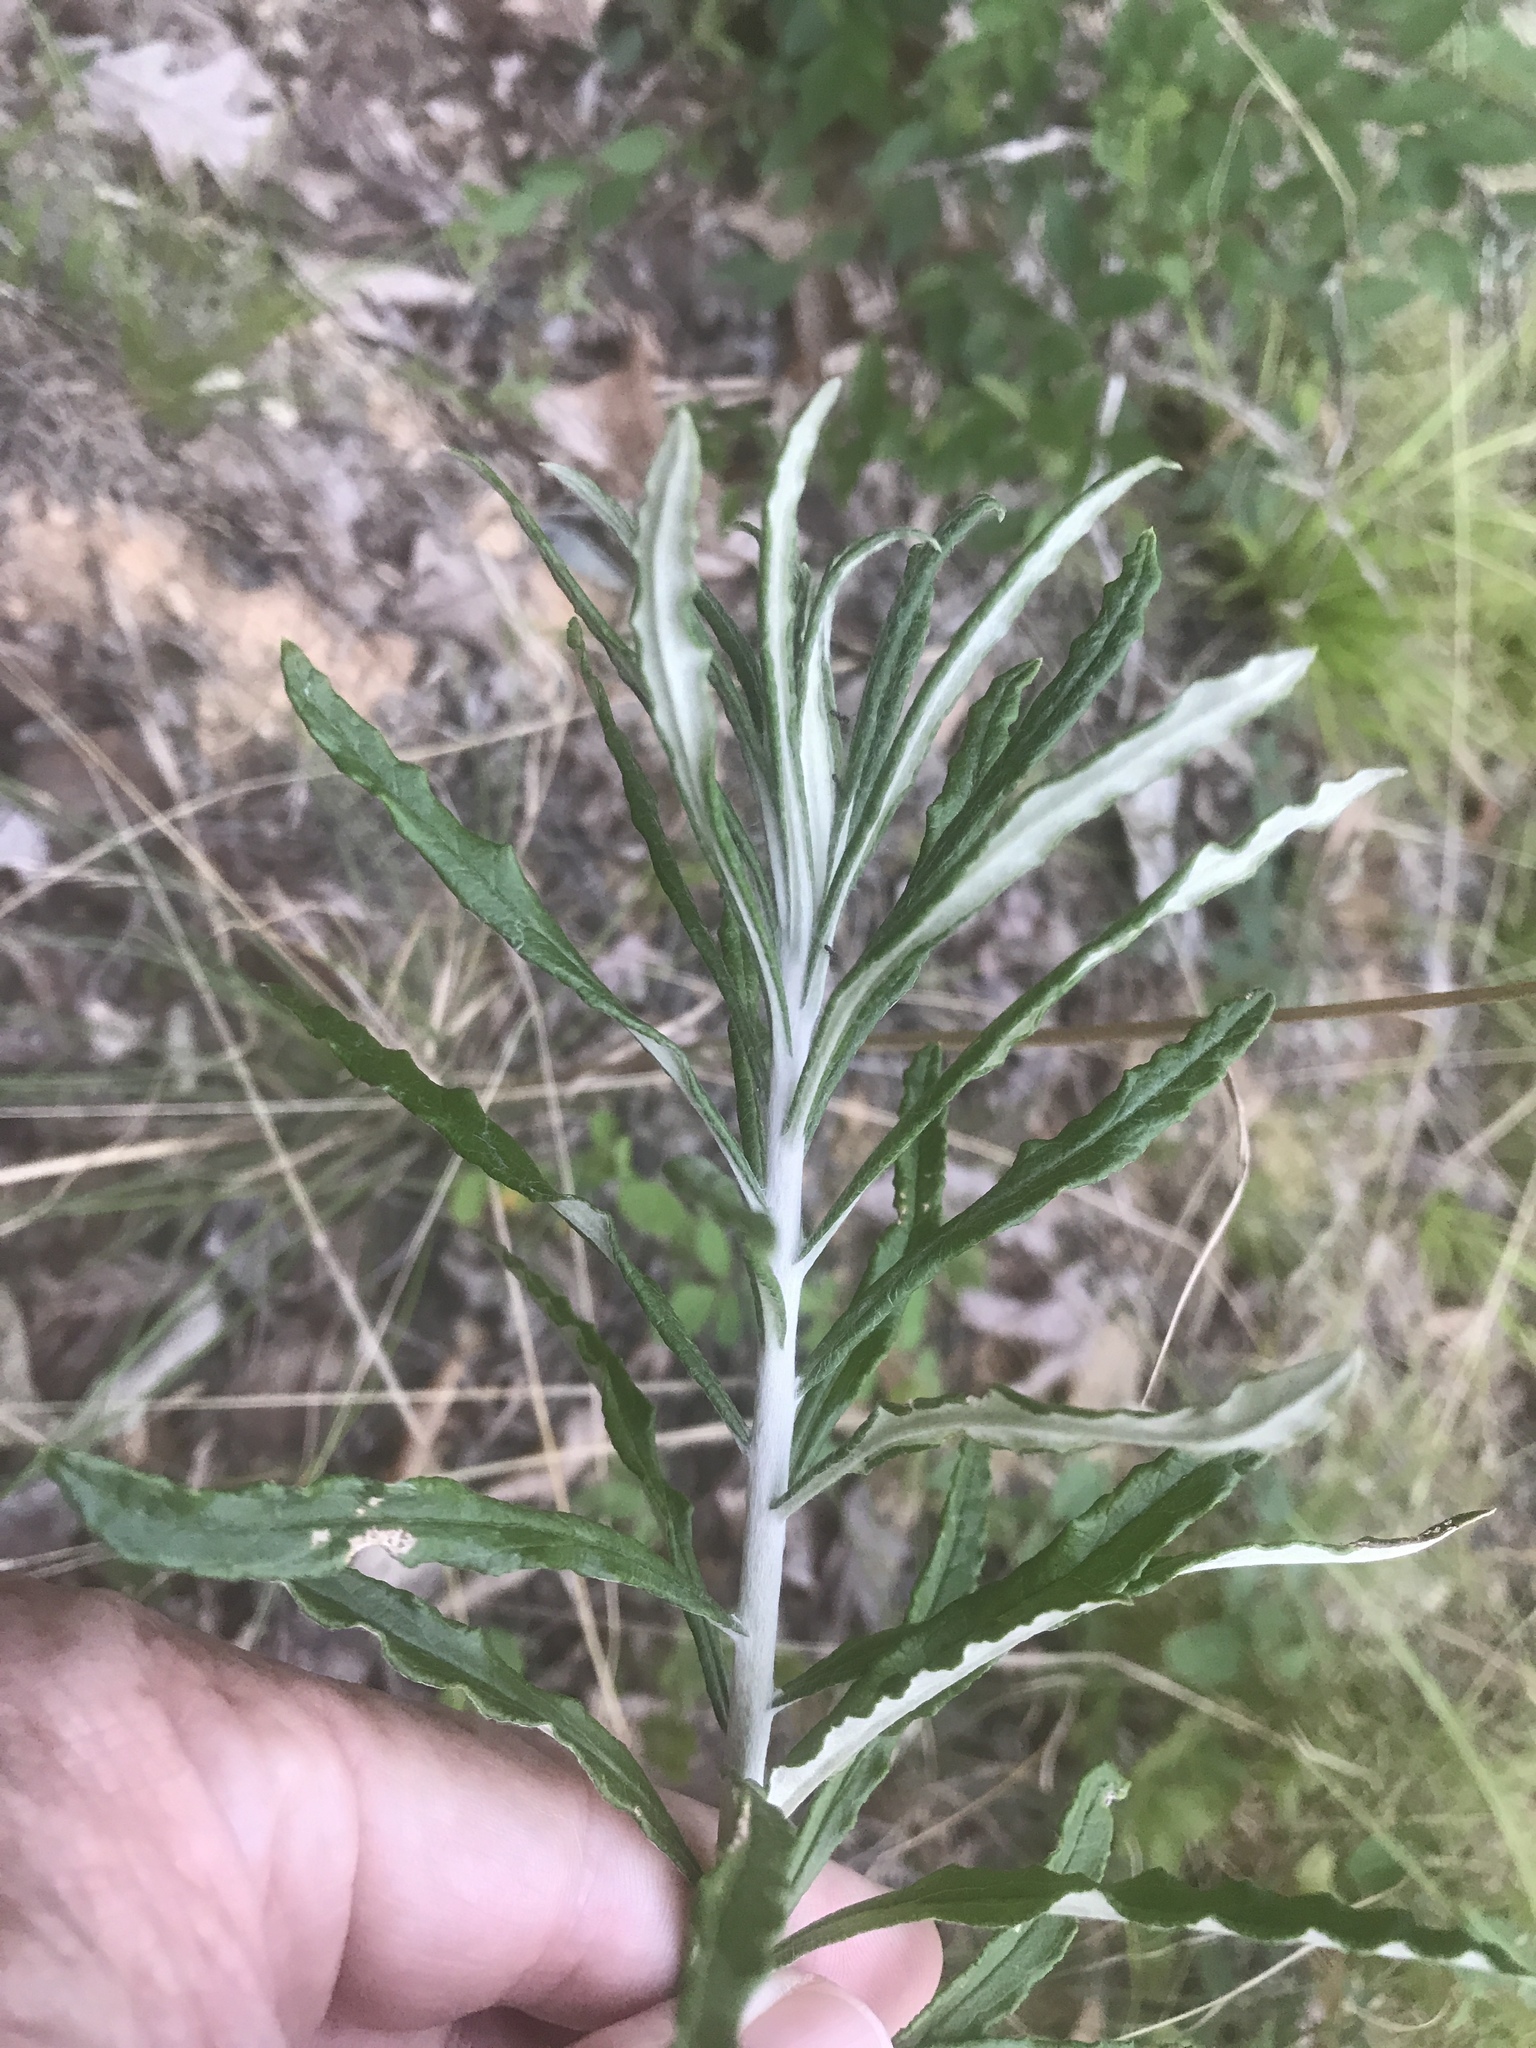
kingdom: Plantae
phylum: Tracheophyta
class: Magnoliopsida
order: Asterales
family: Asteraceae
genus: Pseudognaphalium
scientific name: Pseudognaphalium obtusifolium
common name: Eastern rabbit-tobacco
